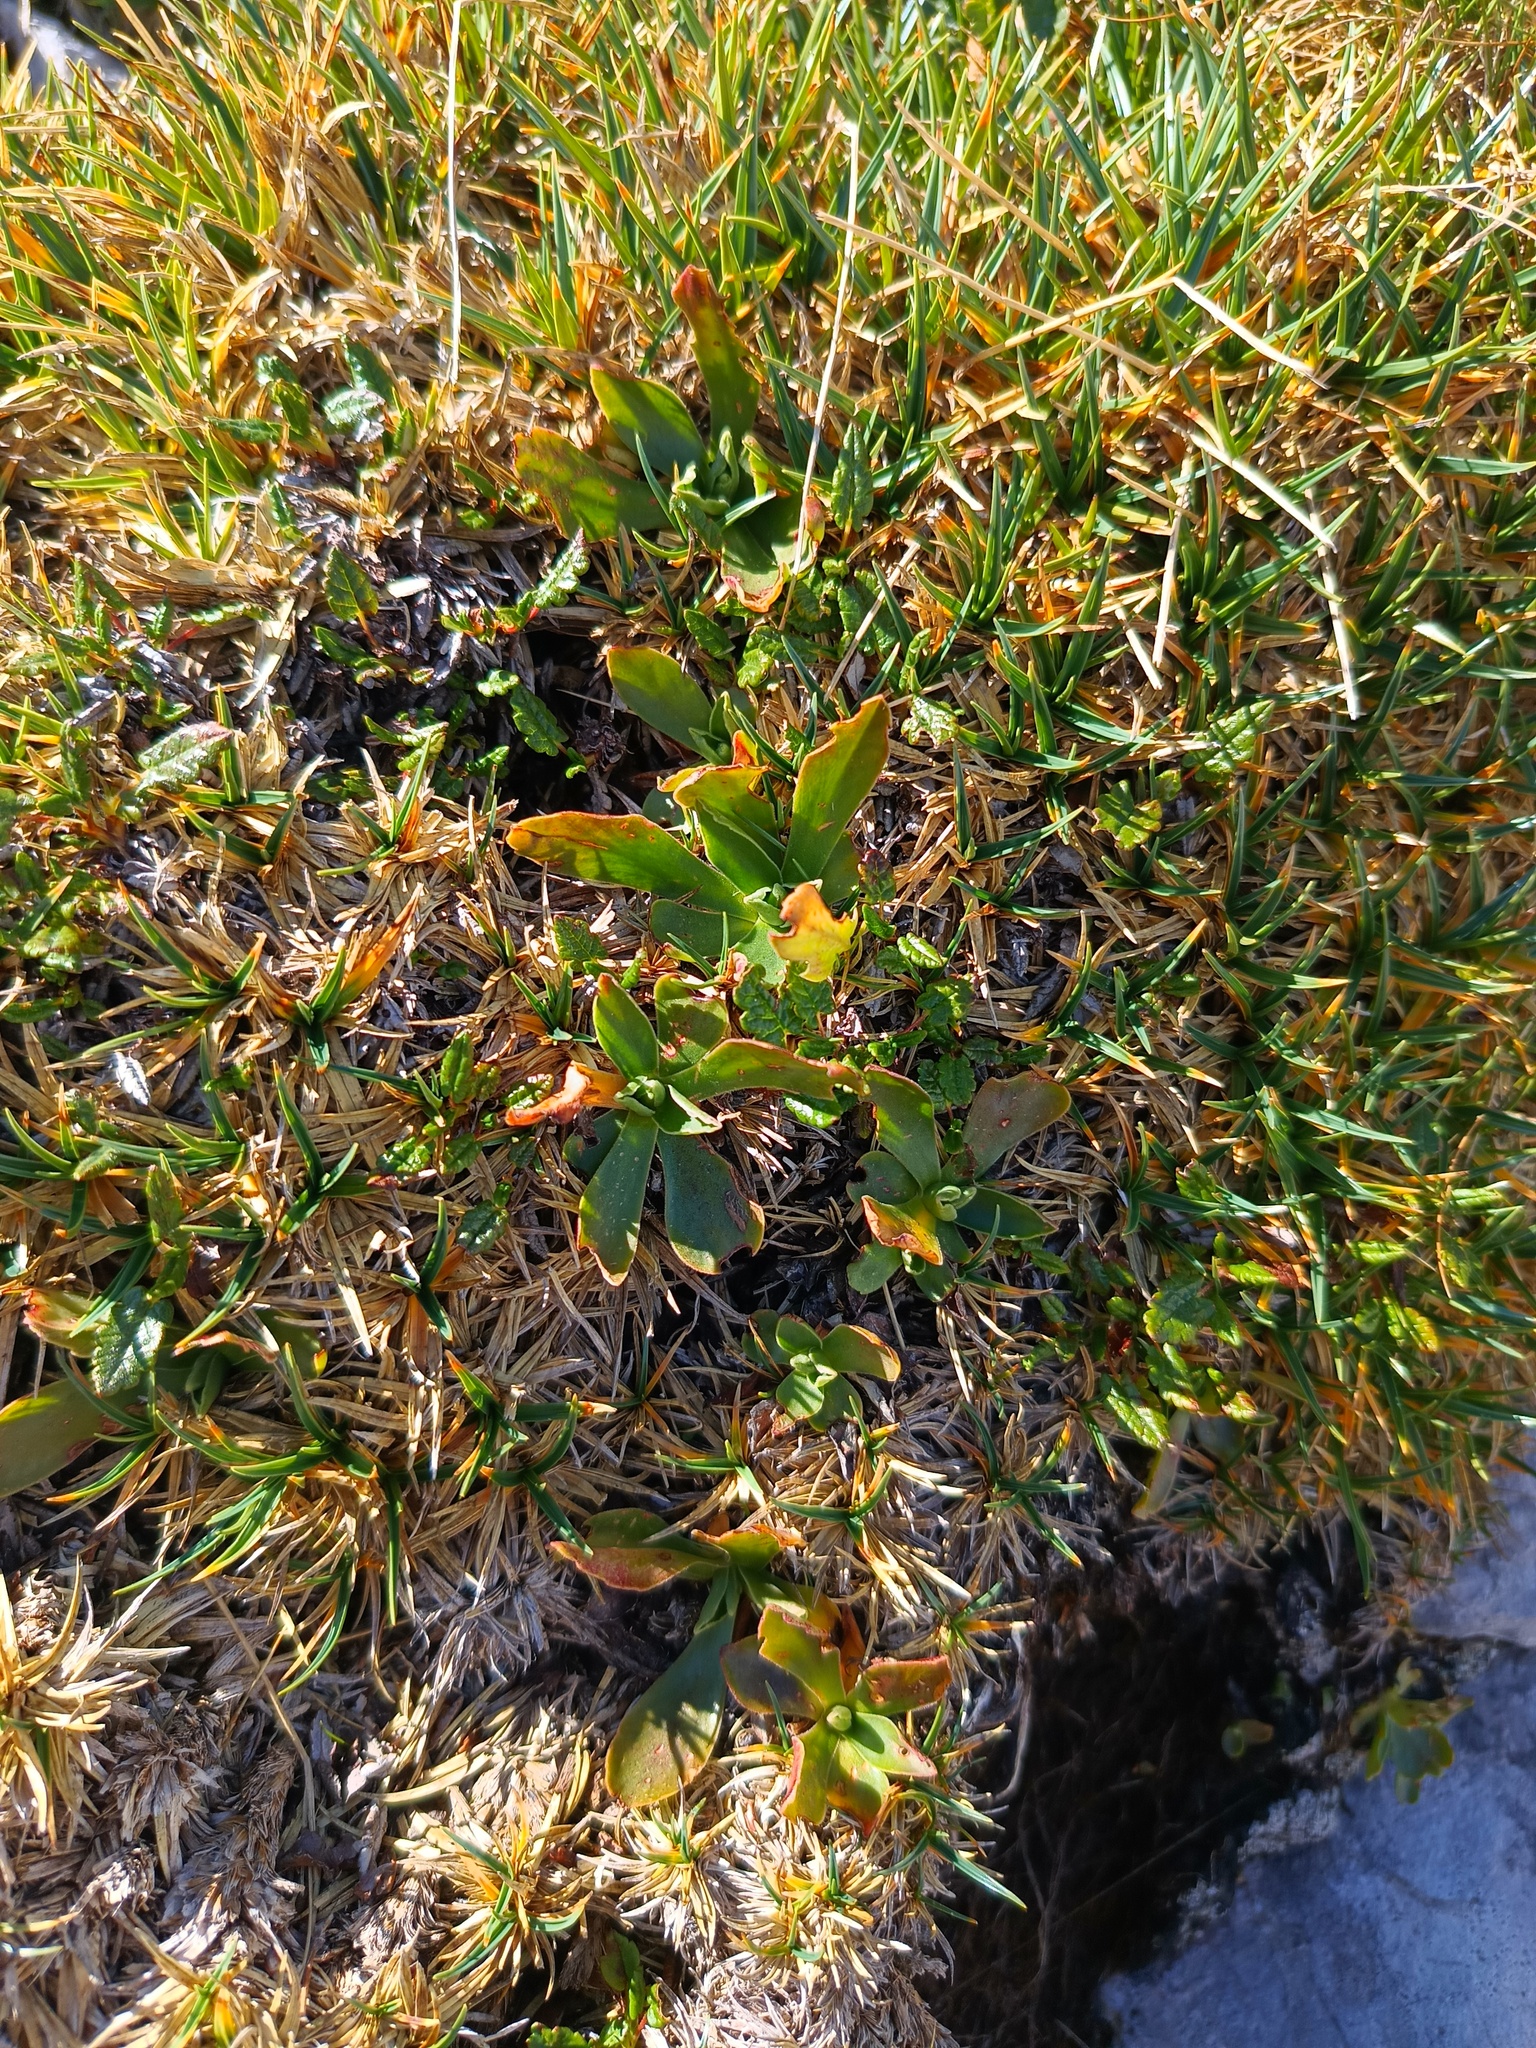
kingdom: Plantae
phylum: Tracheophyta
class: Magnoliopsida
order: Ericales
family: Primulaceae
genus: Primula
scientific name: Primula clusiana
